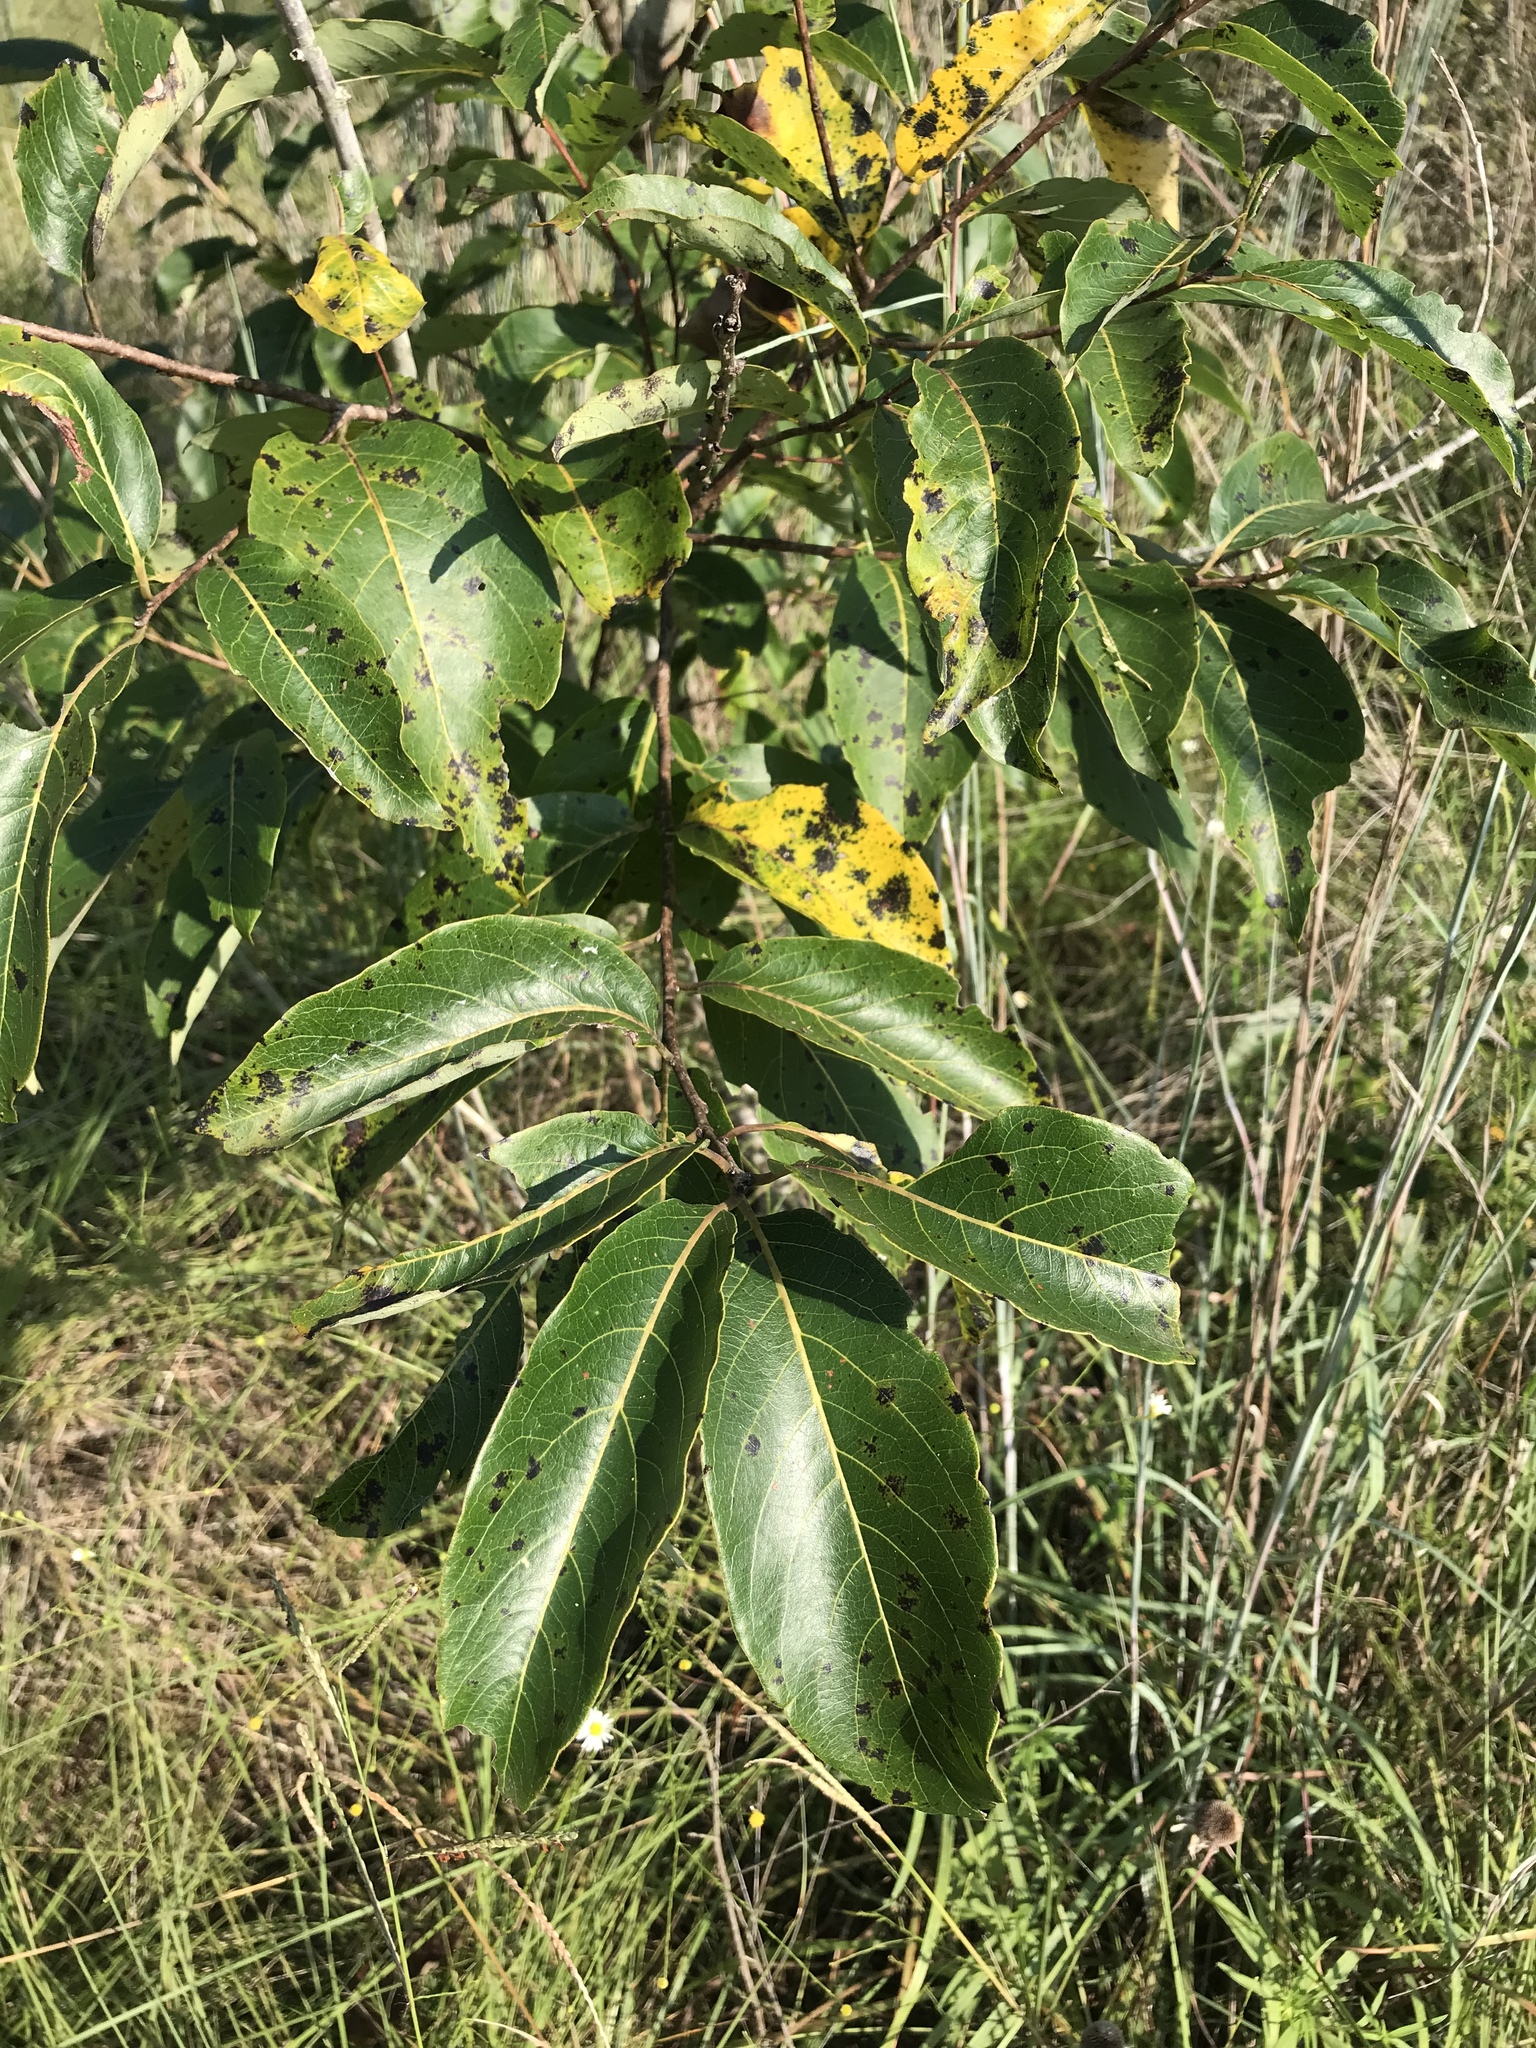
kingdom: Plantae
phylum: Tracheophyta
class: Magnoliopsida
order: Ericales
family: Ebenaceae
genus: Diospyros
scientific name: Diospyros virginiana
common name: Persimmon
